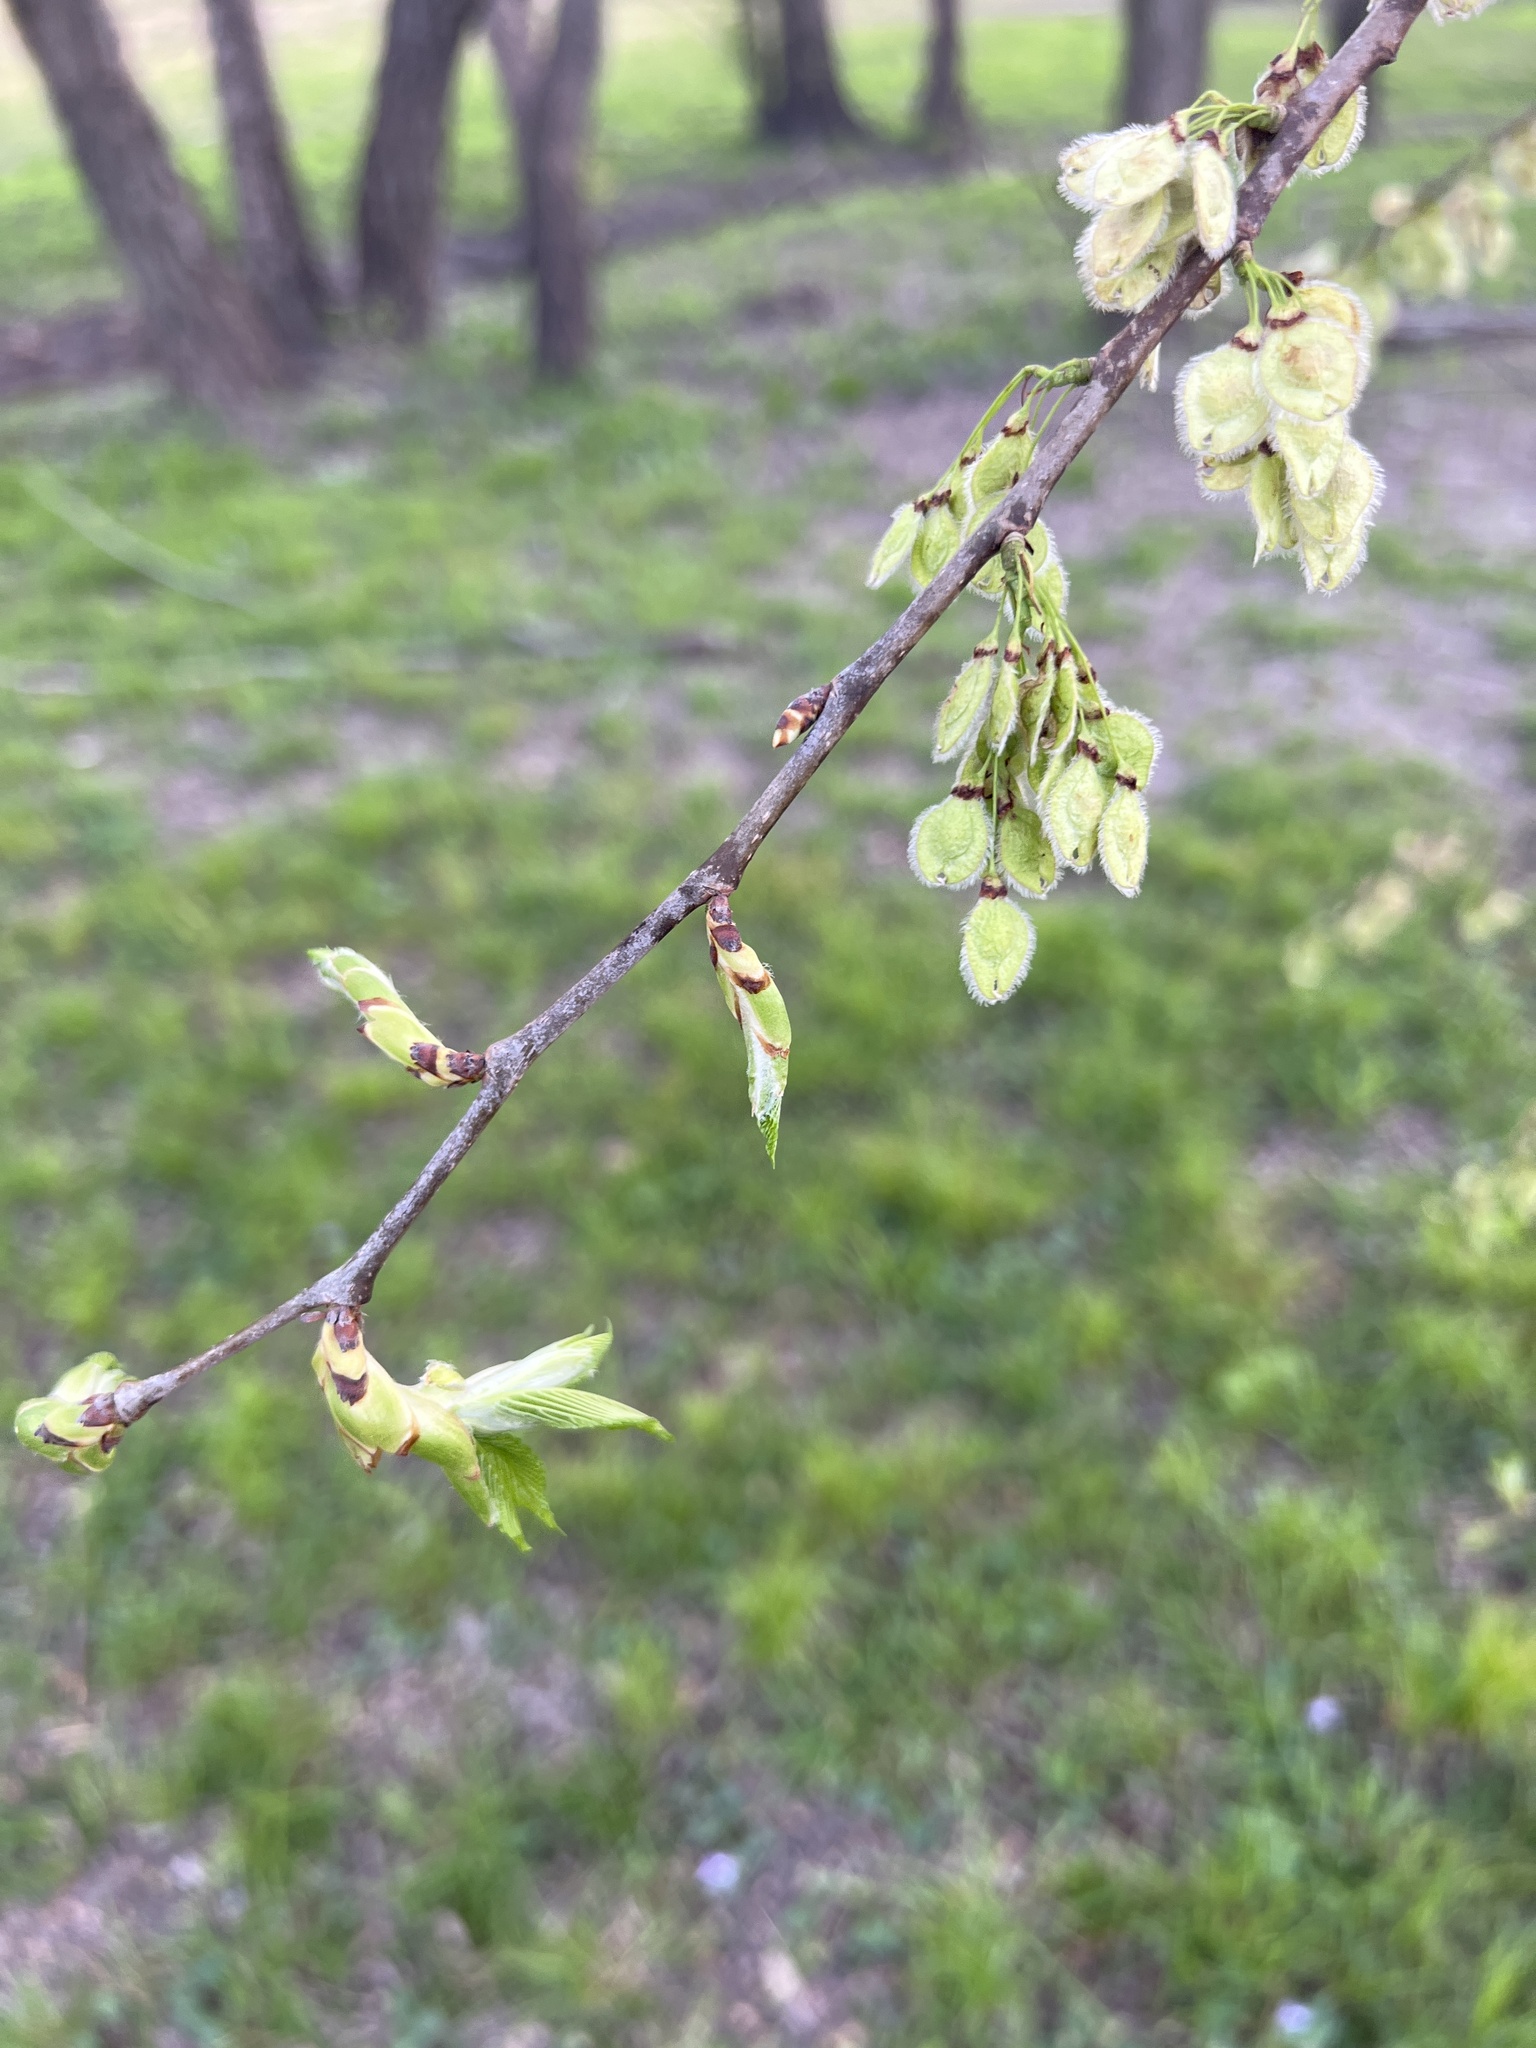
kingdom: Plantae
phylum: Tracheophyta
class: Magnoliopsida
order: Rosales
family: Ulmaceae
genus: Ulmus
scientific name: Ulmus americana
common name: American elm
